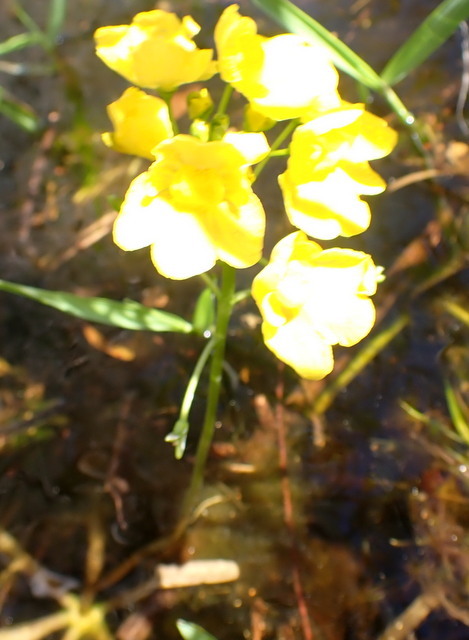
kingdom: Plantae
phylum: Tracheophyta
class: Magnoliopsida
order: Lamiales
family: Lentibulariaceae
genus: Utricularia
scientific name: Utricularia inflata
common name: Floating bladderwort
